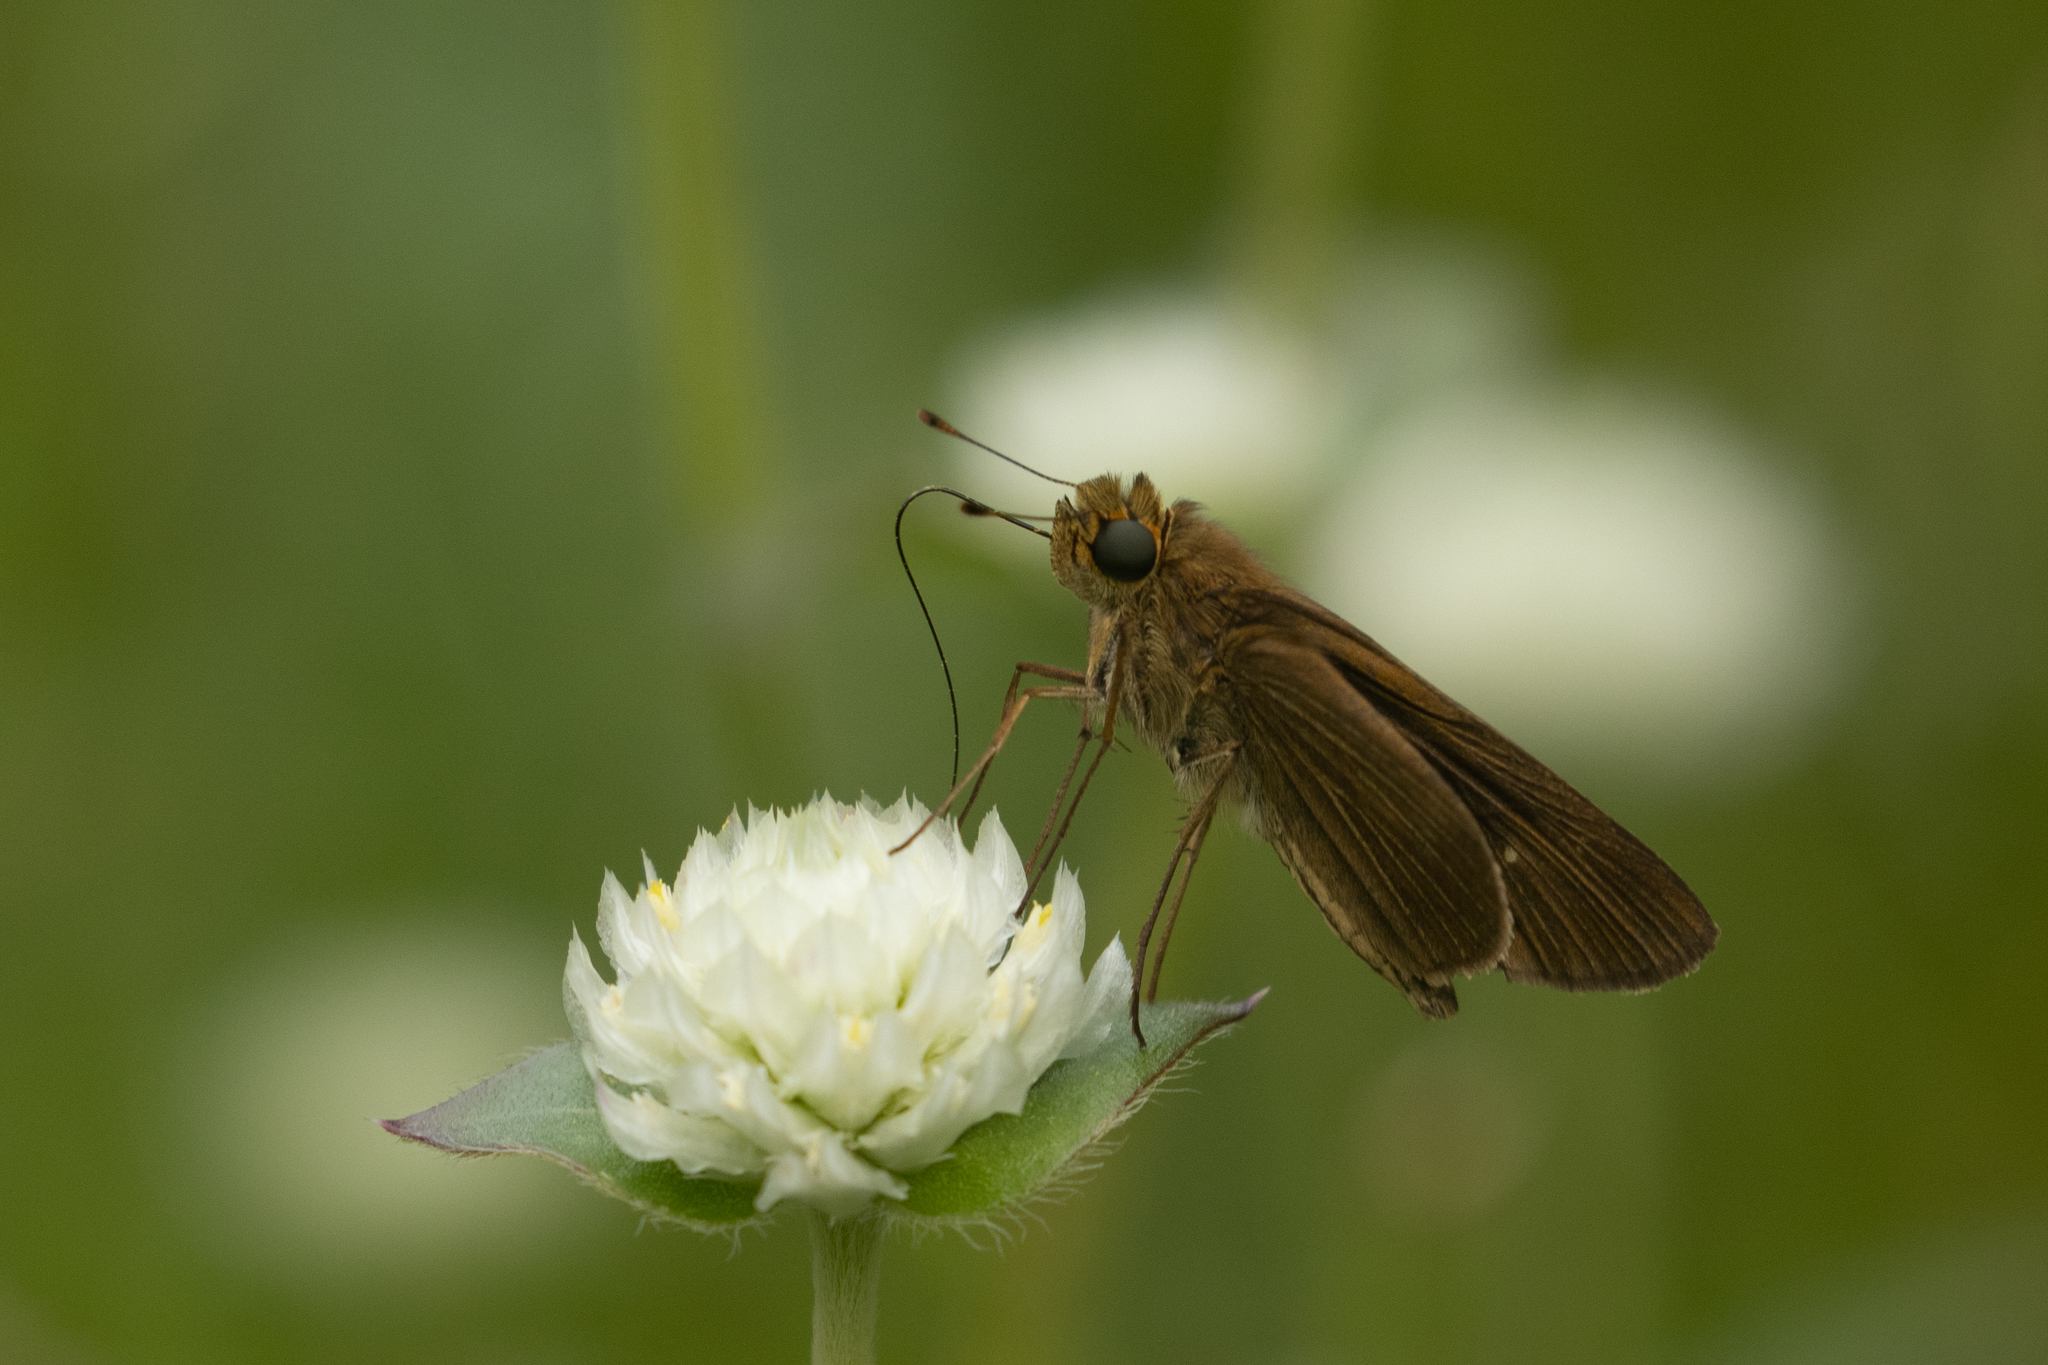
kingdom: Animalia
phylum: Arthropoda
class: Insecta
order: Lepidoptera
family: Hesperiidae
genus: Panoquina
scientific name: Panoquina ocola
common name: Ocola skipper
